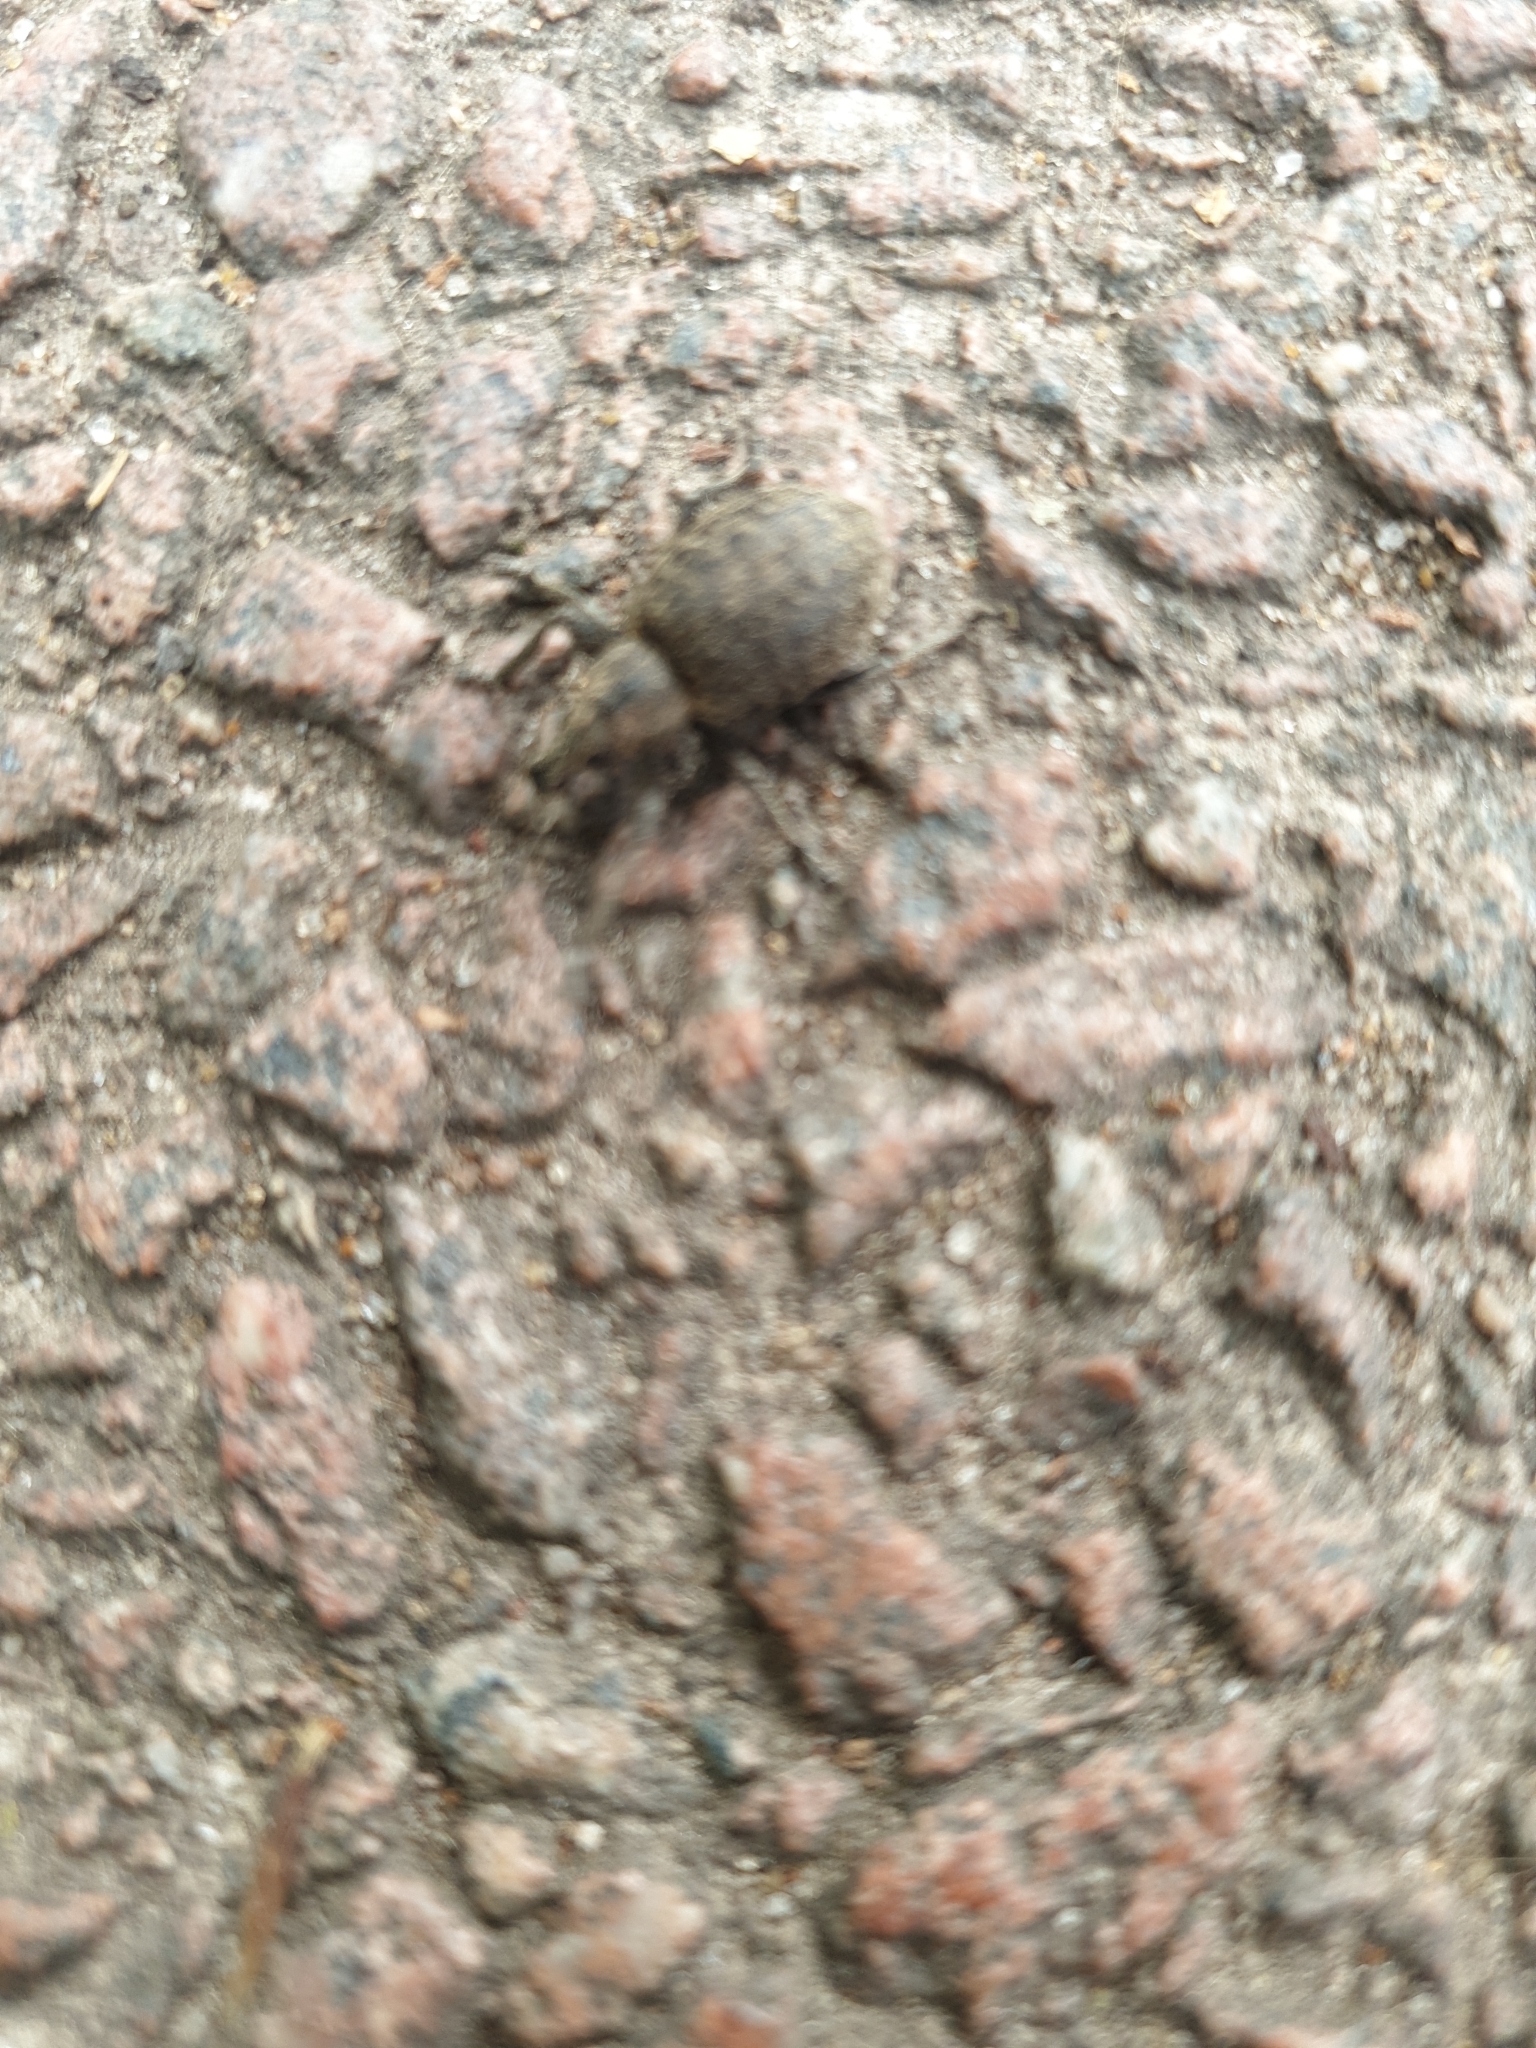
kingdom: Animalia
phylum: Arthropoda
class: Insecta
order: Coleoptera
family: Curculionidae
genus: Liophloeus
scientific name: Liophloeus tessulatus
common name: Weevil
